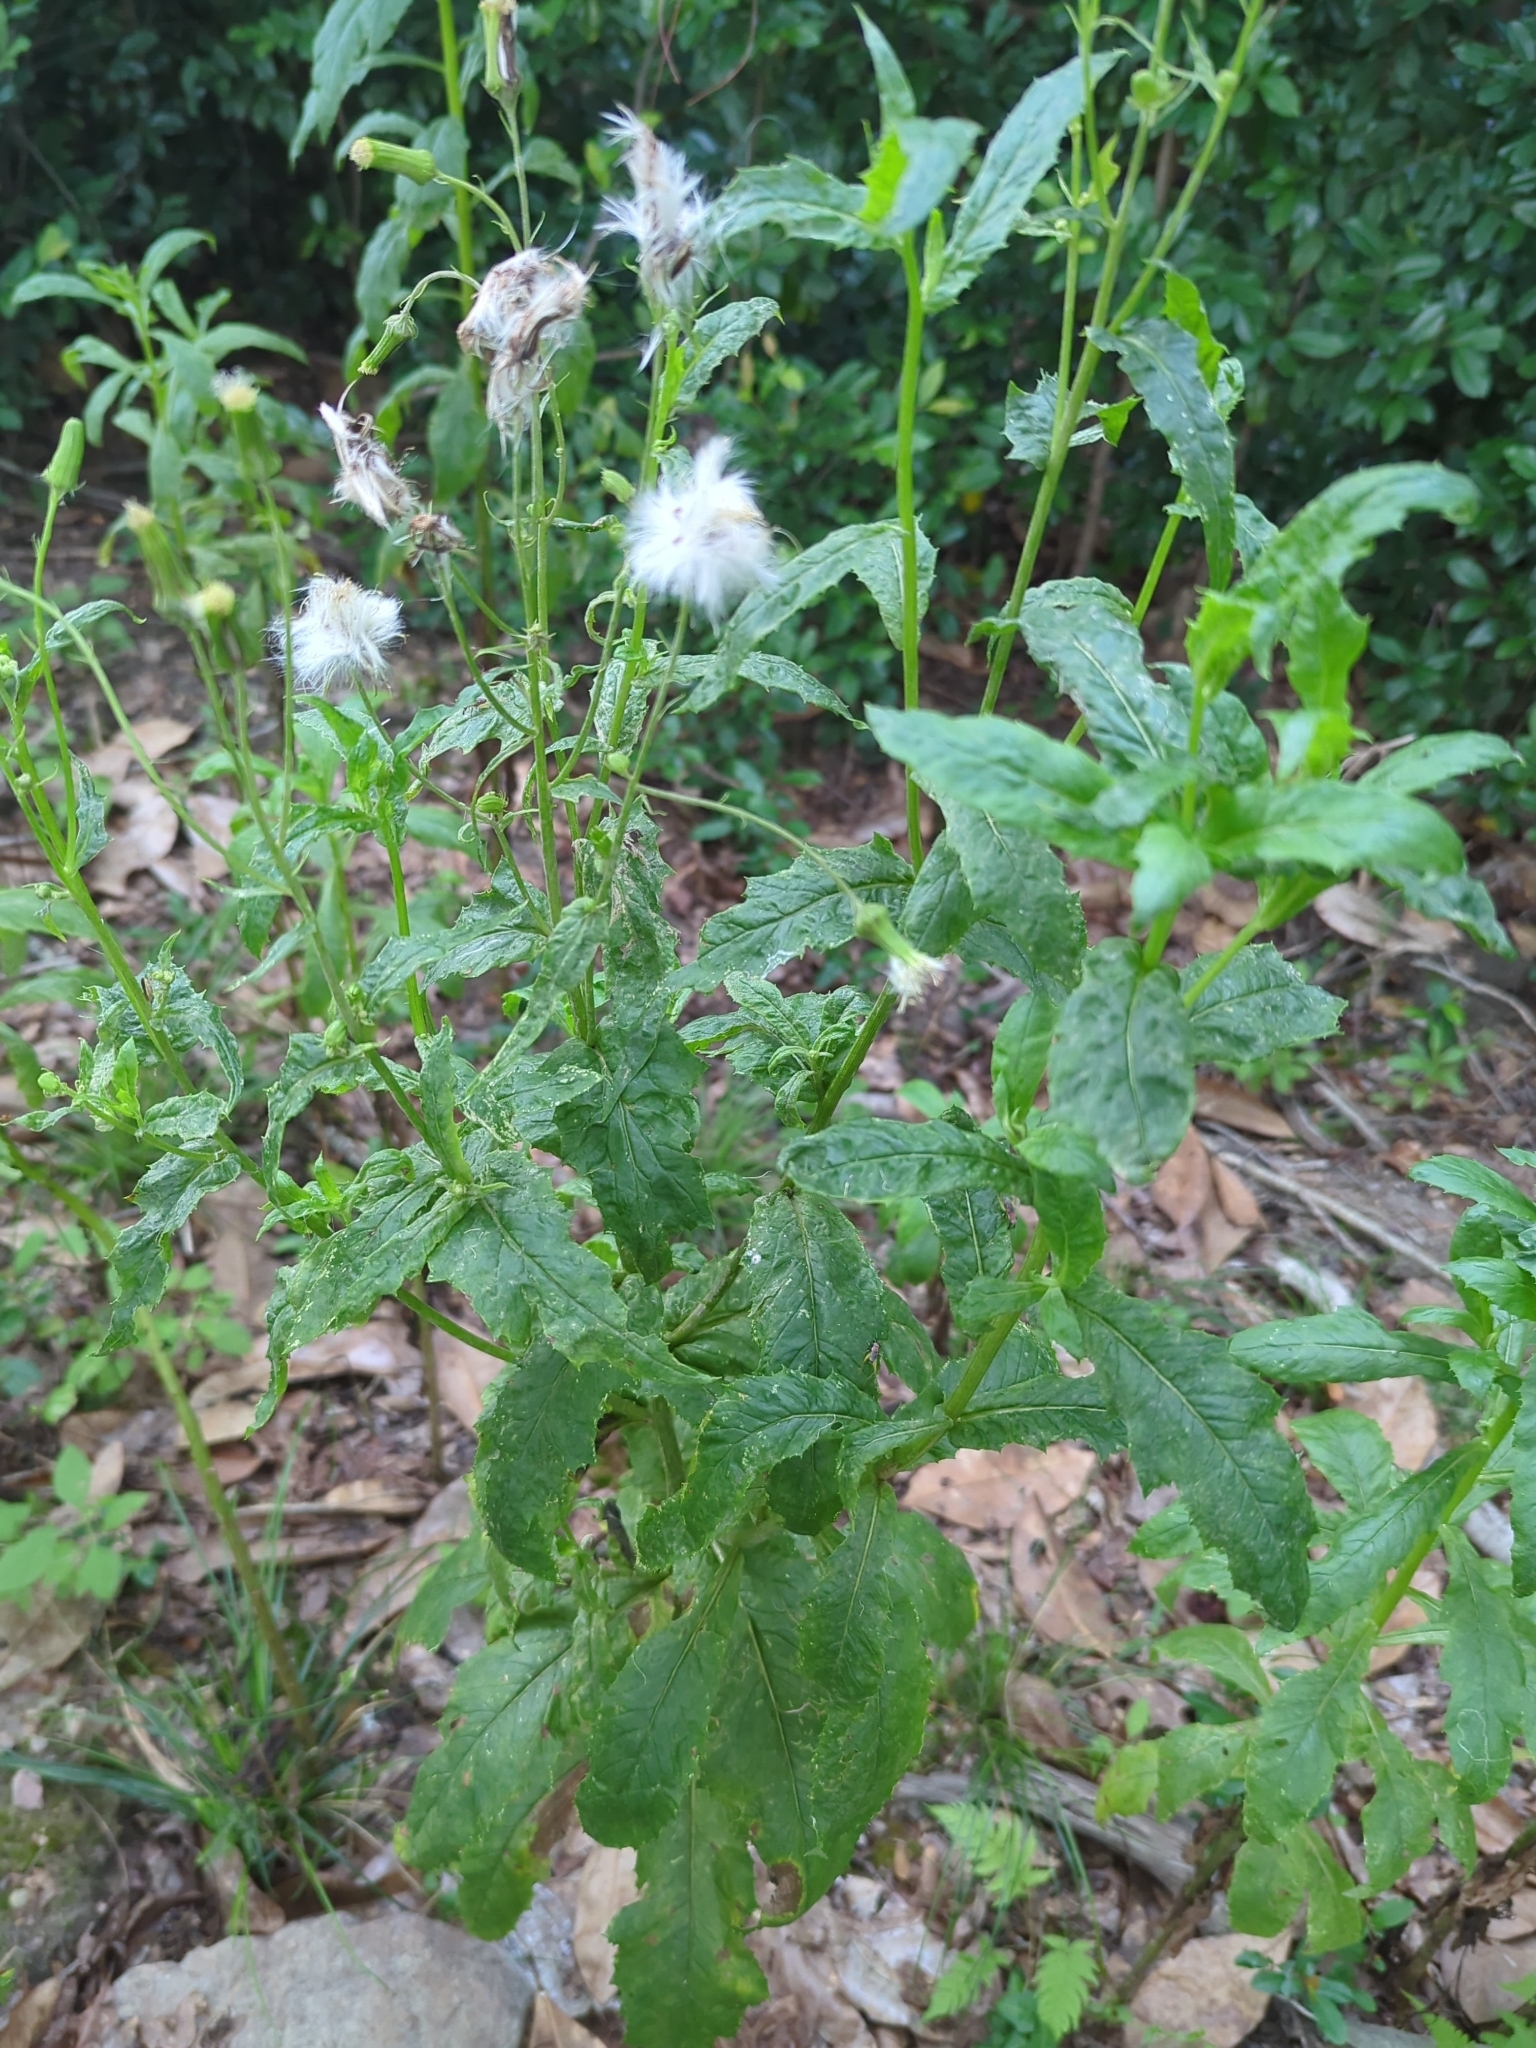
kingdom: Plantae
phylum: Tracheophyta
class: Magnoliopsida
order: Asterales
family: Asteraceae
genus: Erechtites
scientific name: Erechtites hieraciifolius
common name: American burnweed
